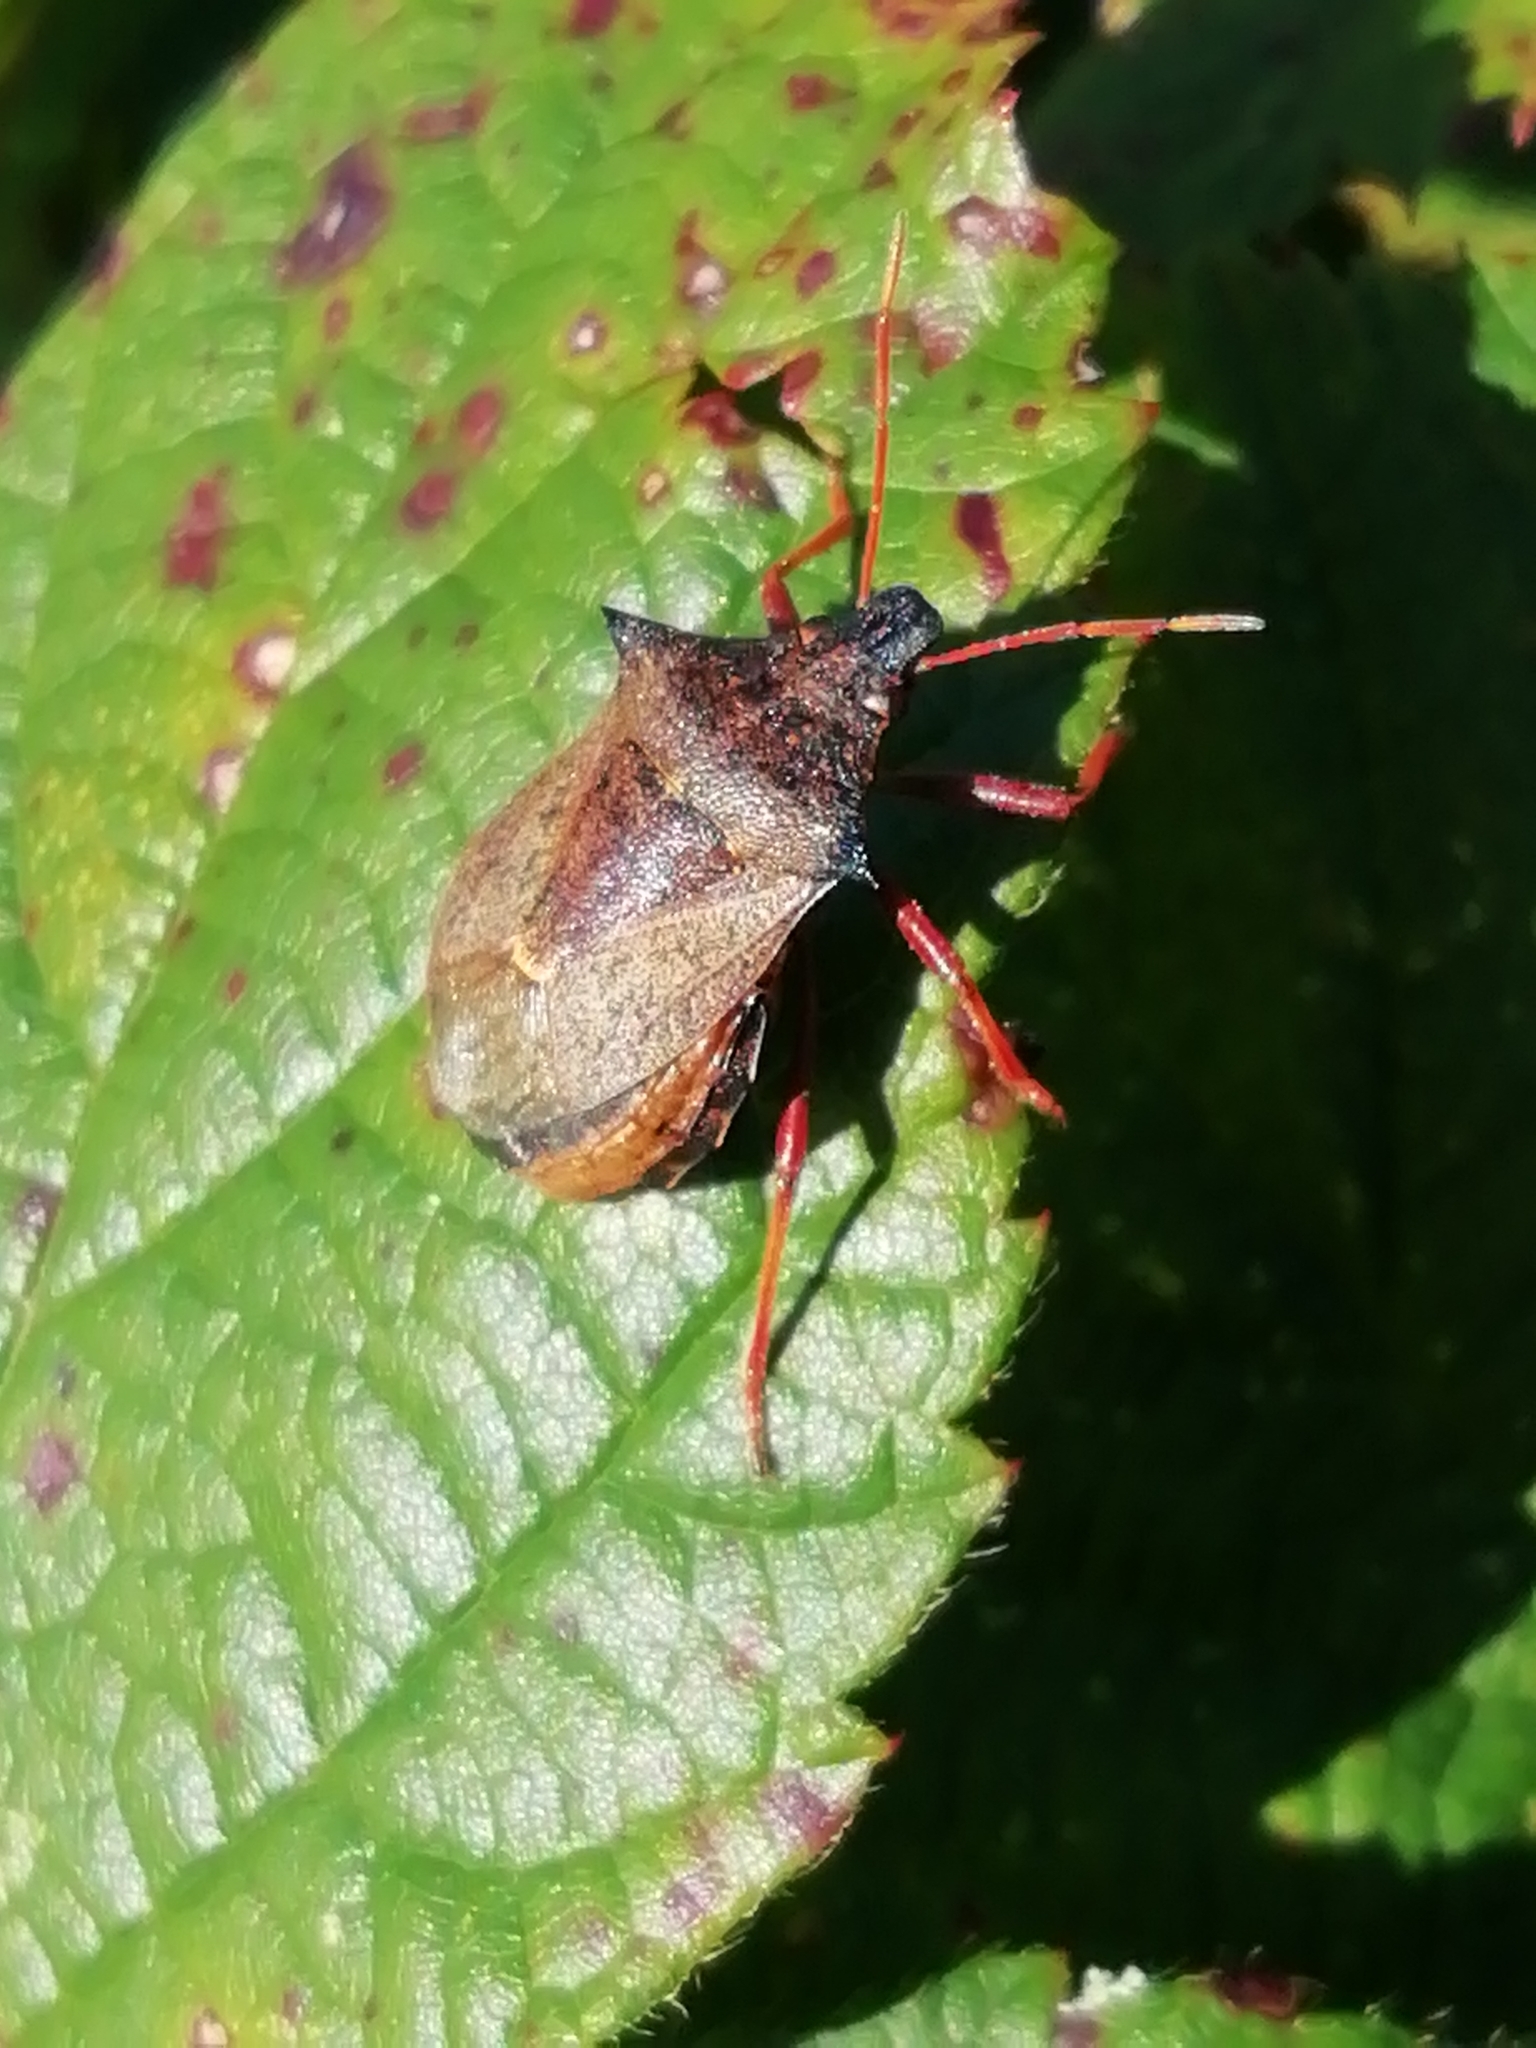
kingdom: Animalia
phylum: Arthropoda
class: Insecta
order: Hemiptera
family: Pentatomidae
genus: Picromerus
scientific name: Picromerus bidens
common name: Spiked shieldbug
